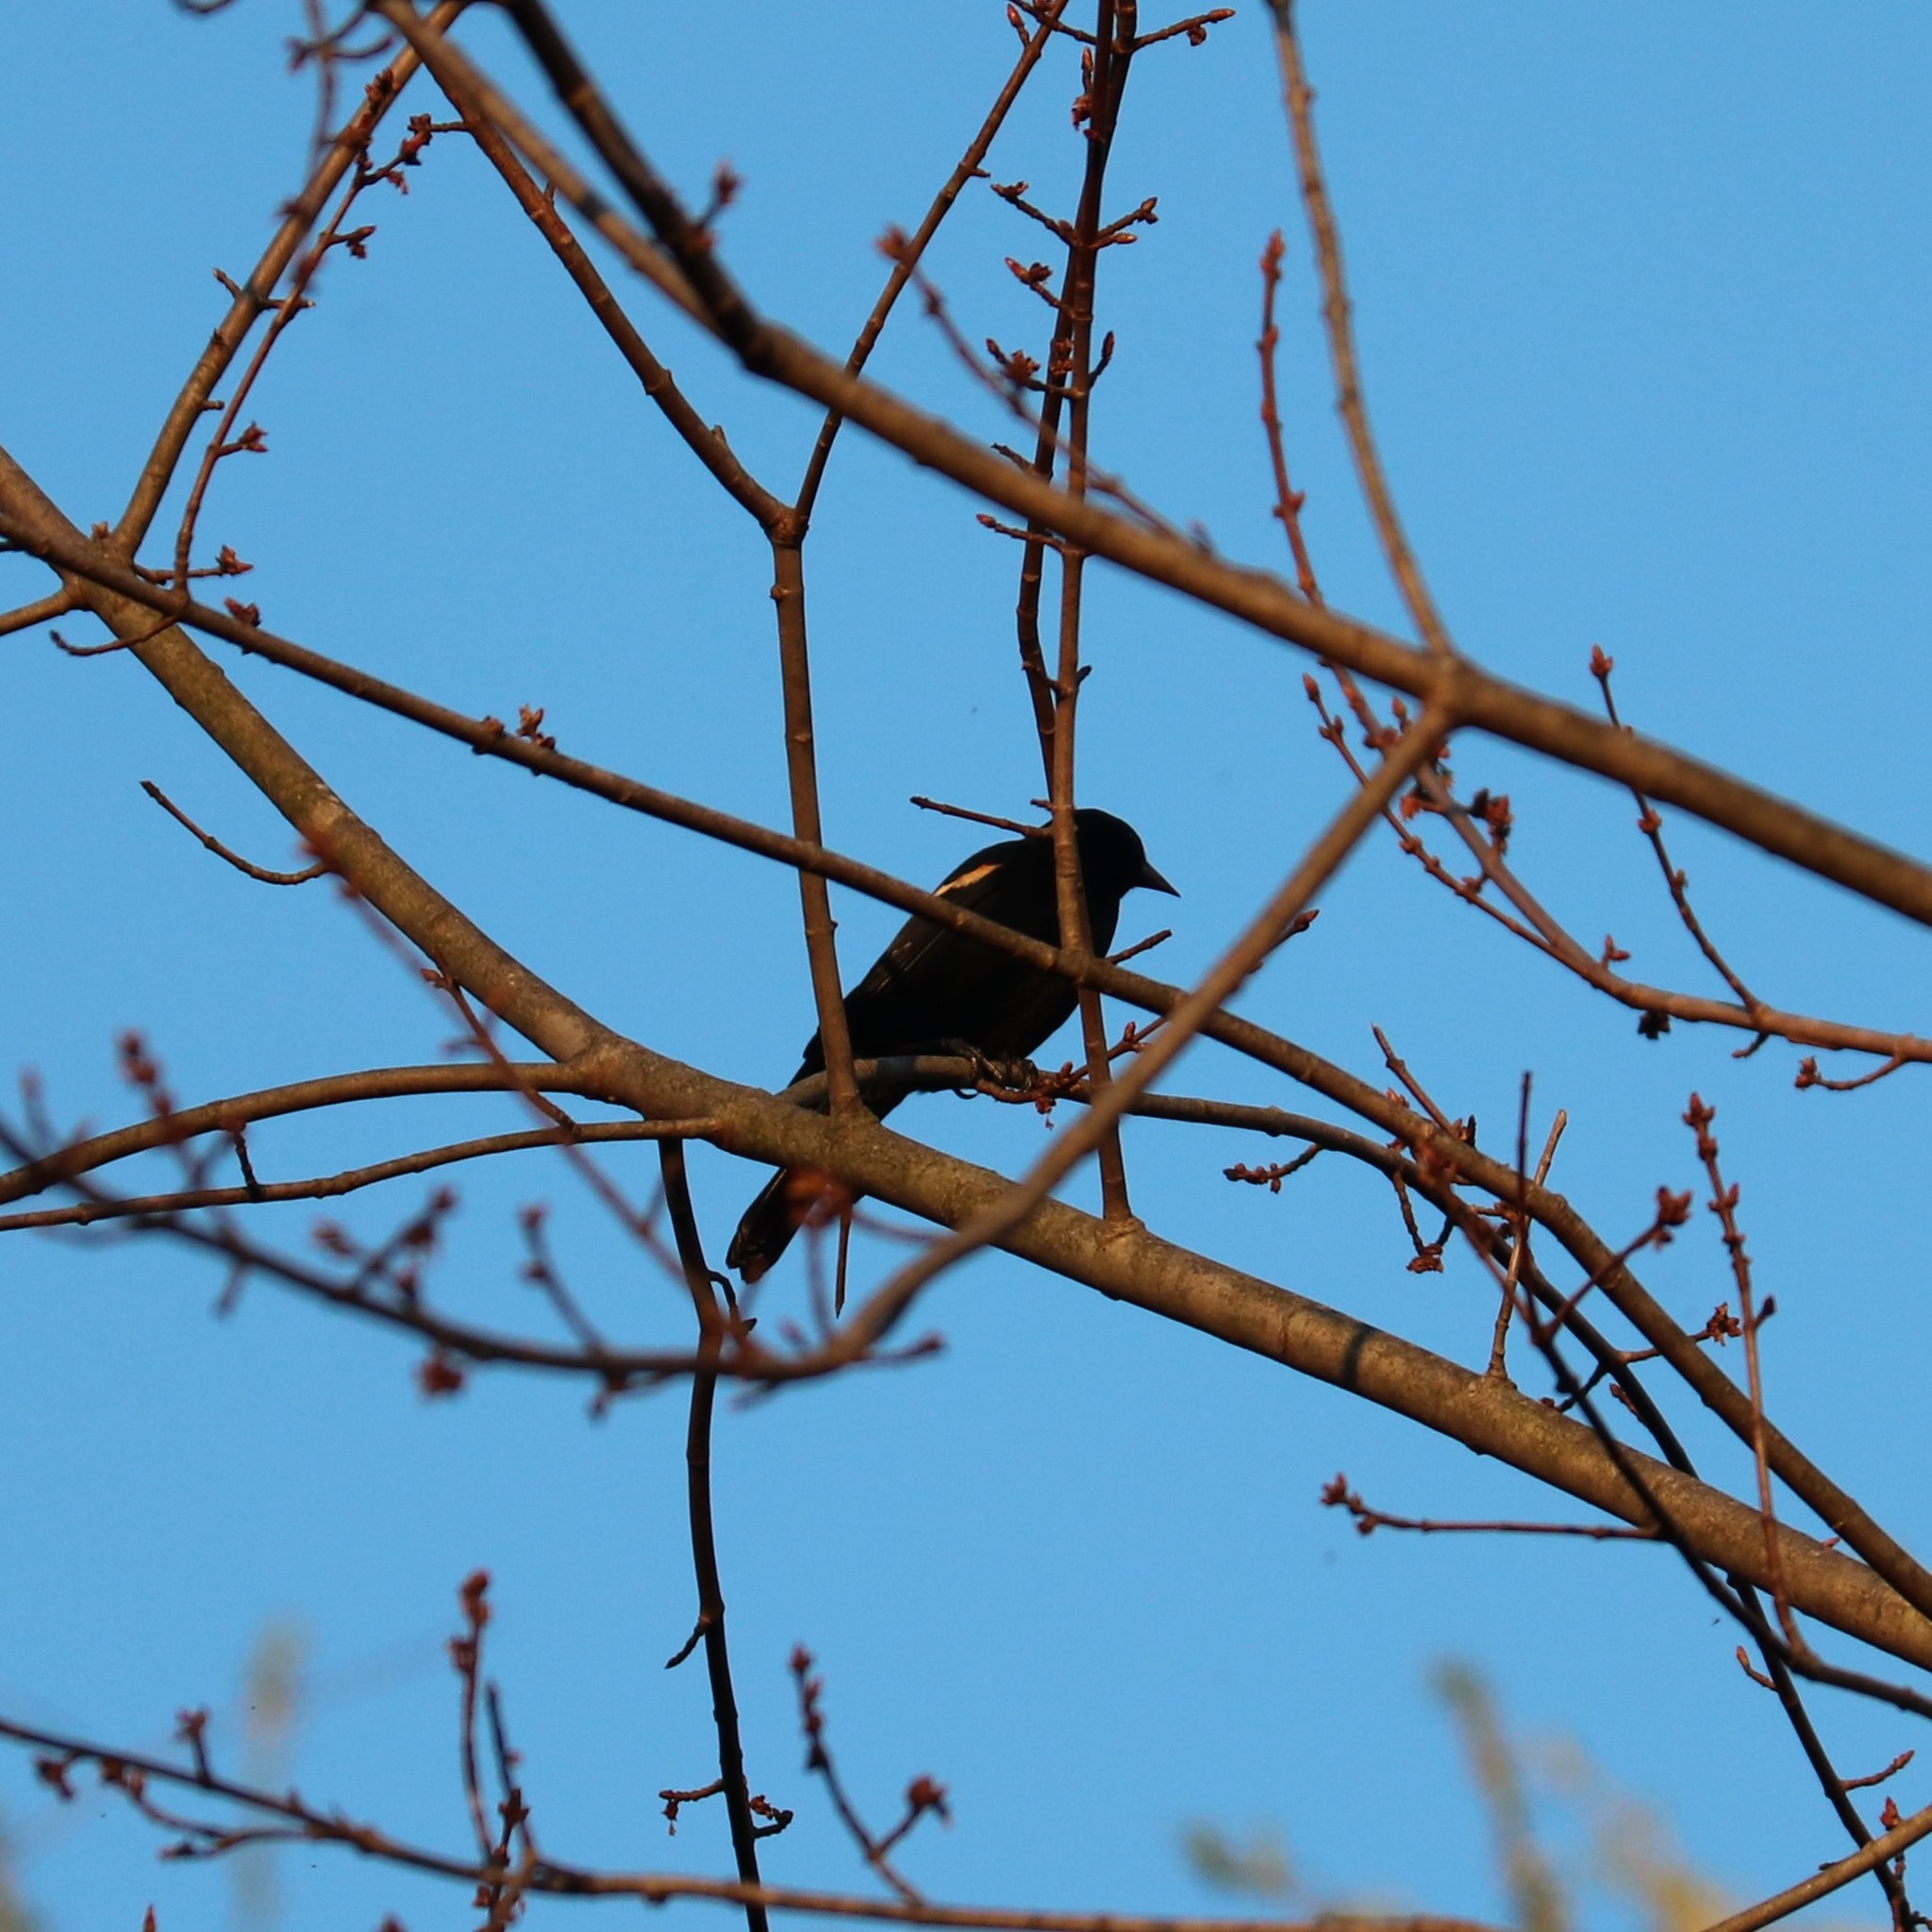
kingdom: Animalia
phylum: Chordata
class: Aves
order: Passeriformes
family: Icteridae
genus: Agelaius
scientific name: Agelaius phoeniceus
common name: Red-winged blackbird
